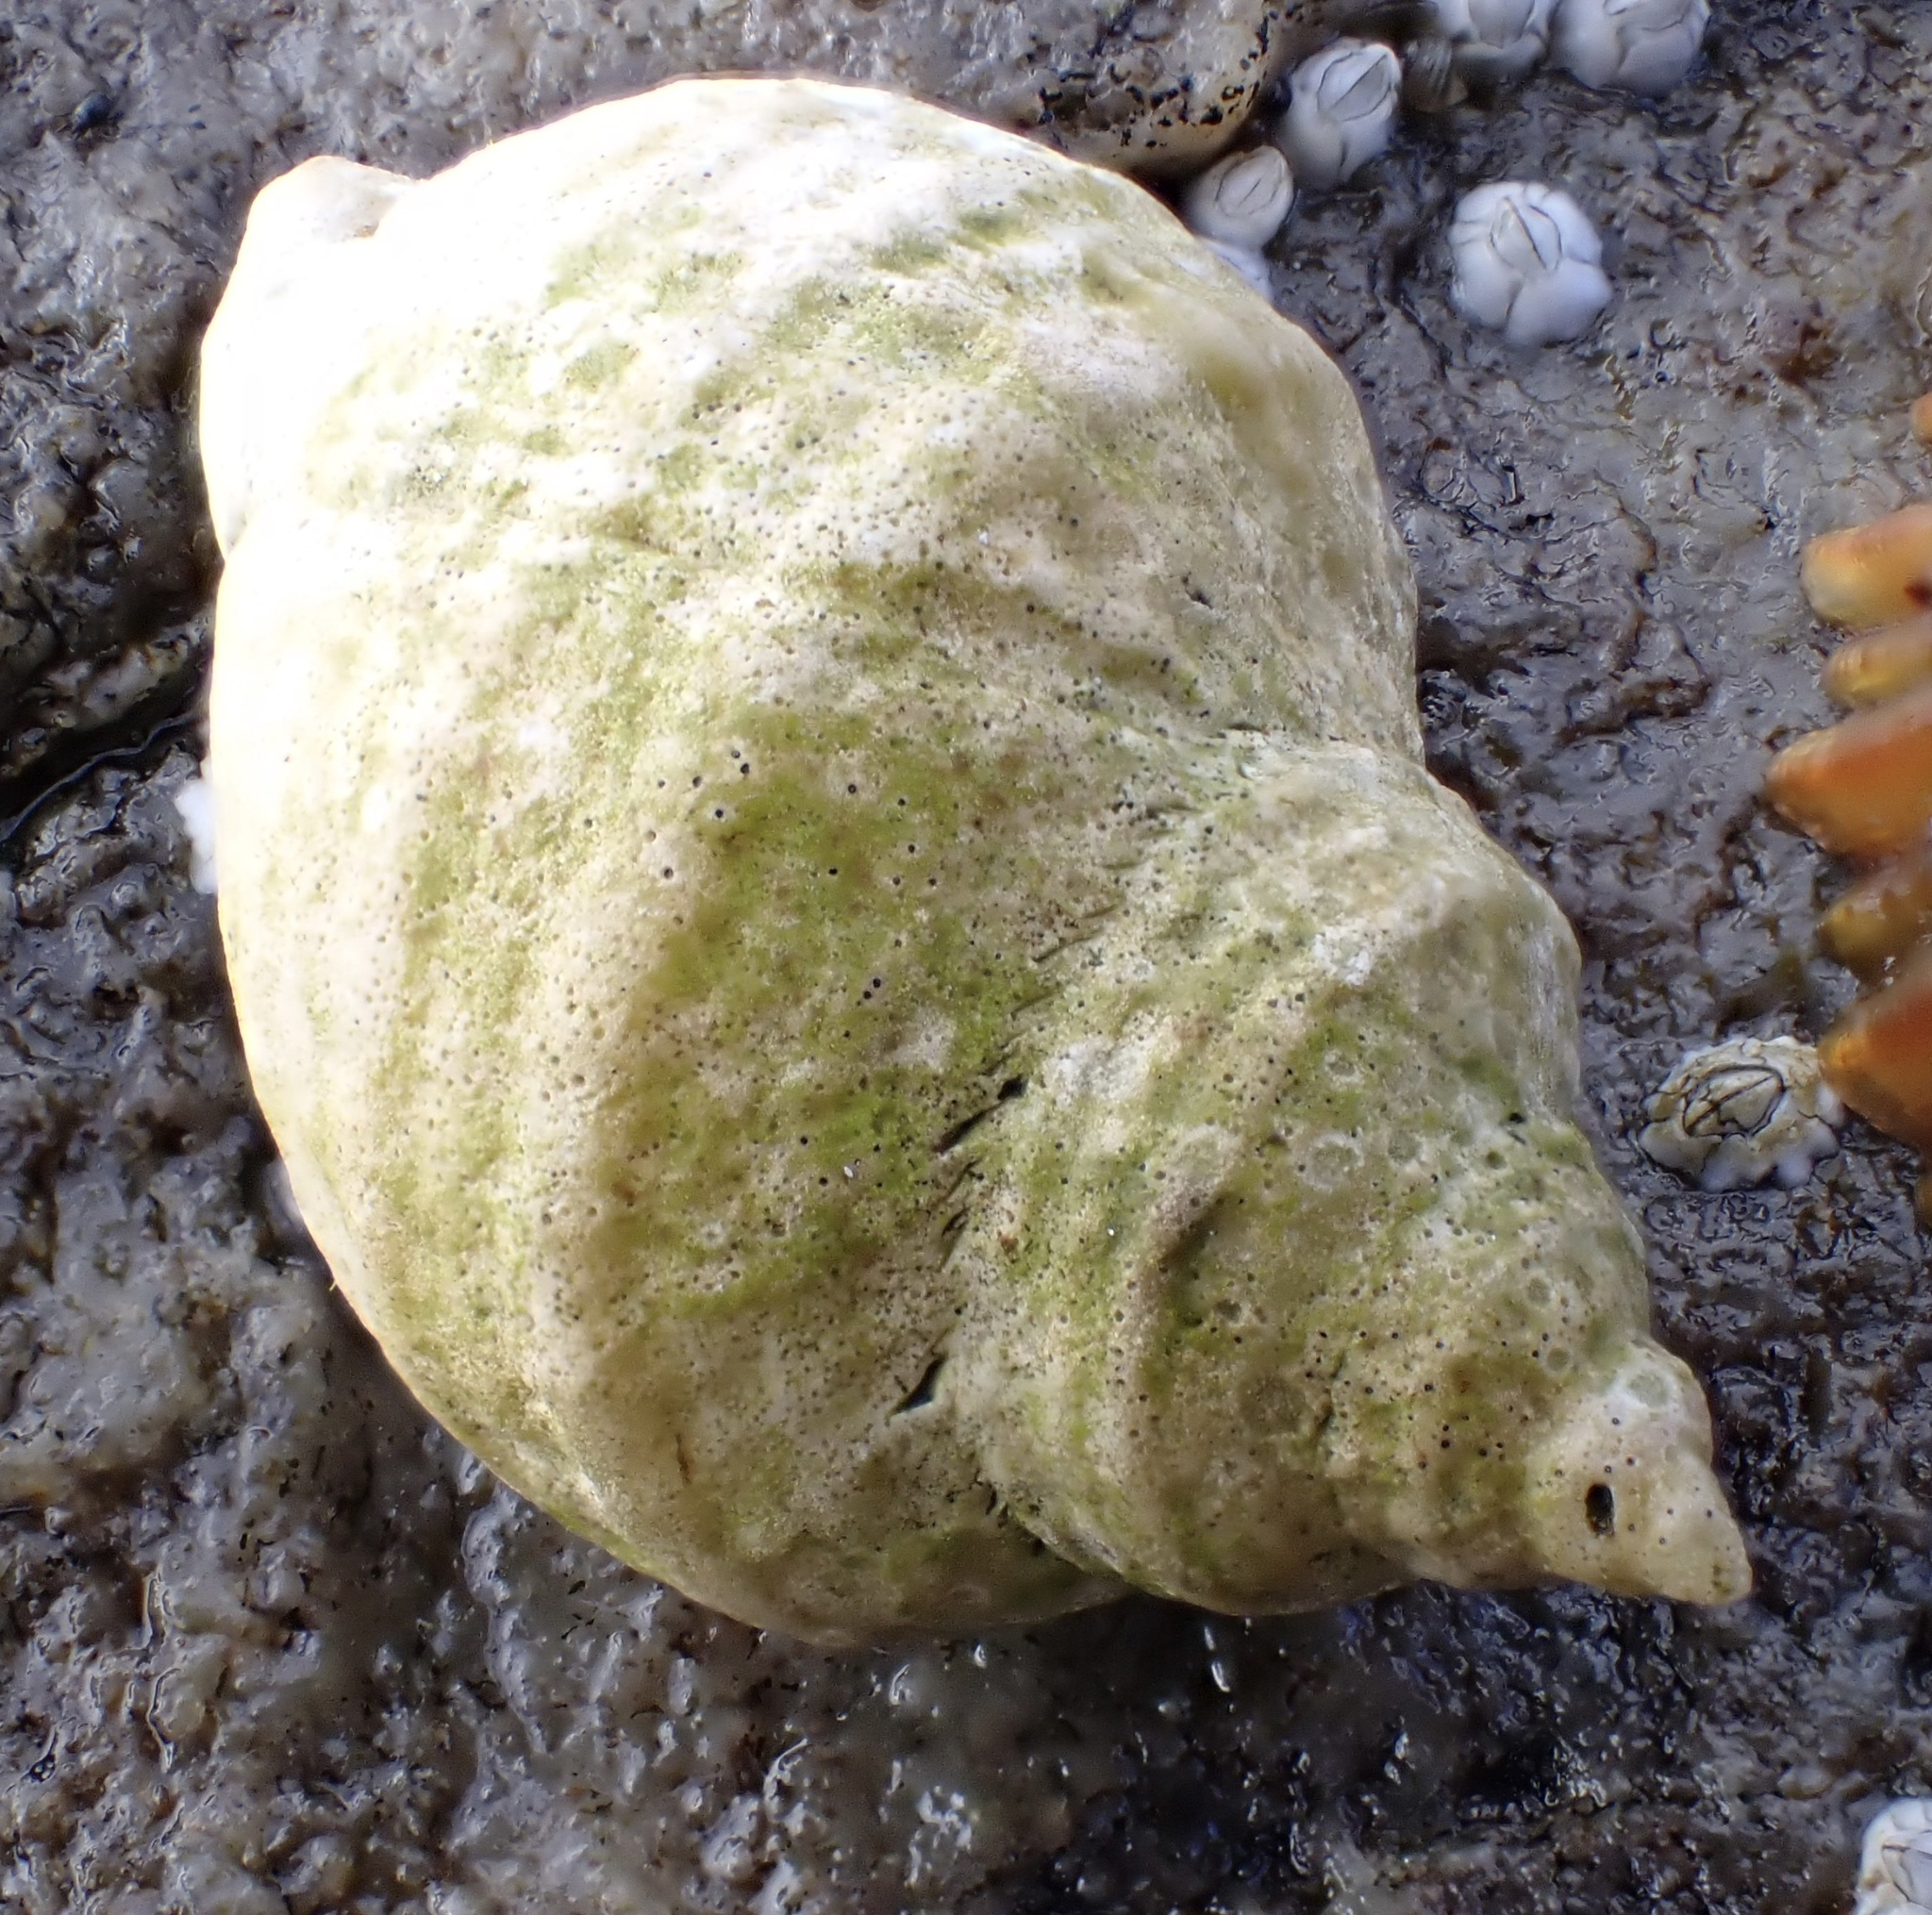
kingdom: Animalia
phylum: Mollusca
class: Gastropoda
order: Neogastropoda
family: Muricidae
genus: Nucella
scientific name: Nucella lapillus
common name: Dog whelk
